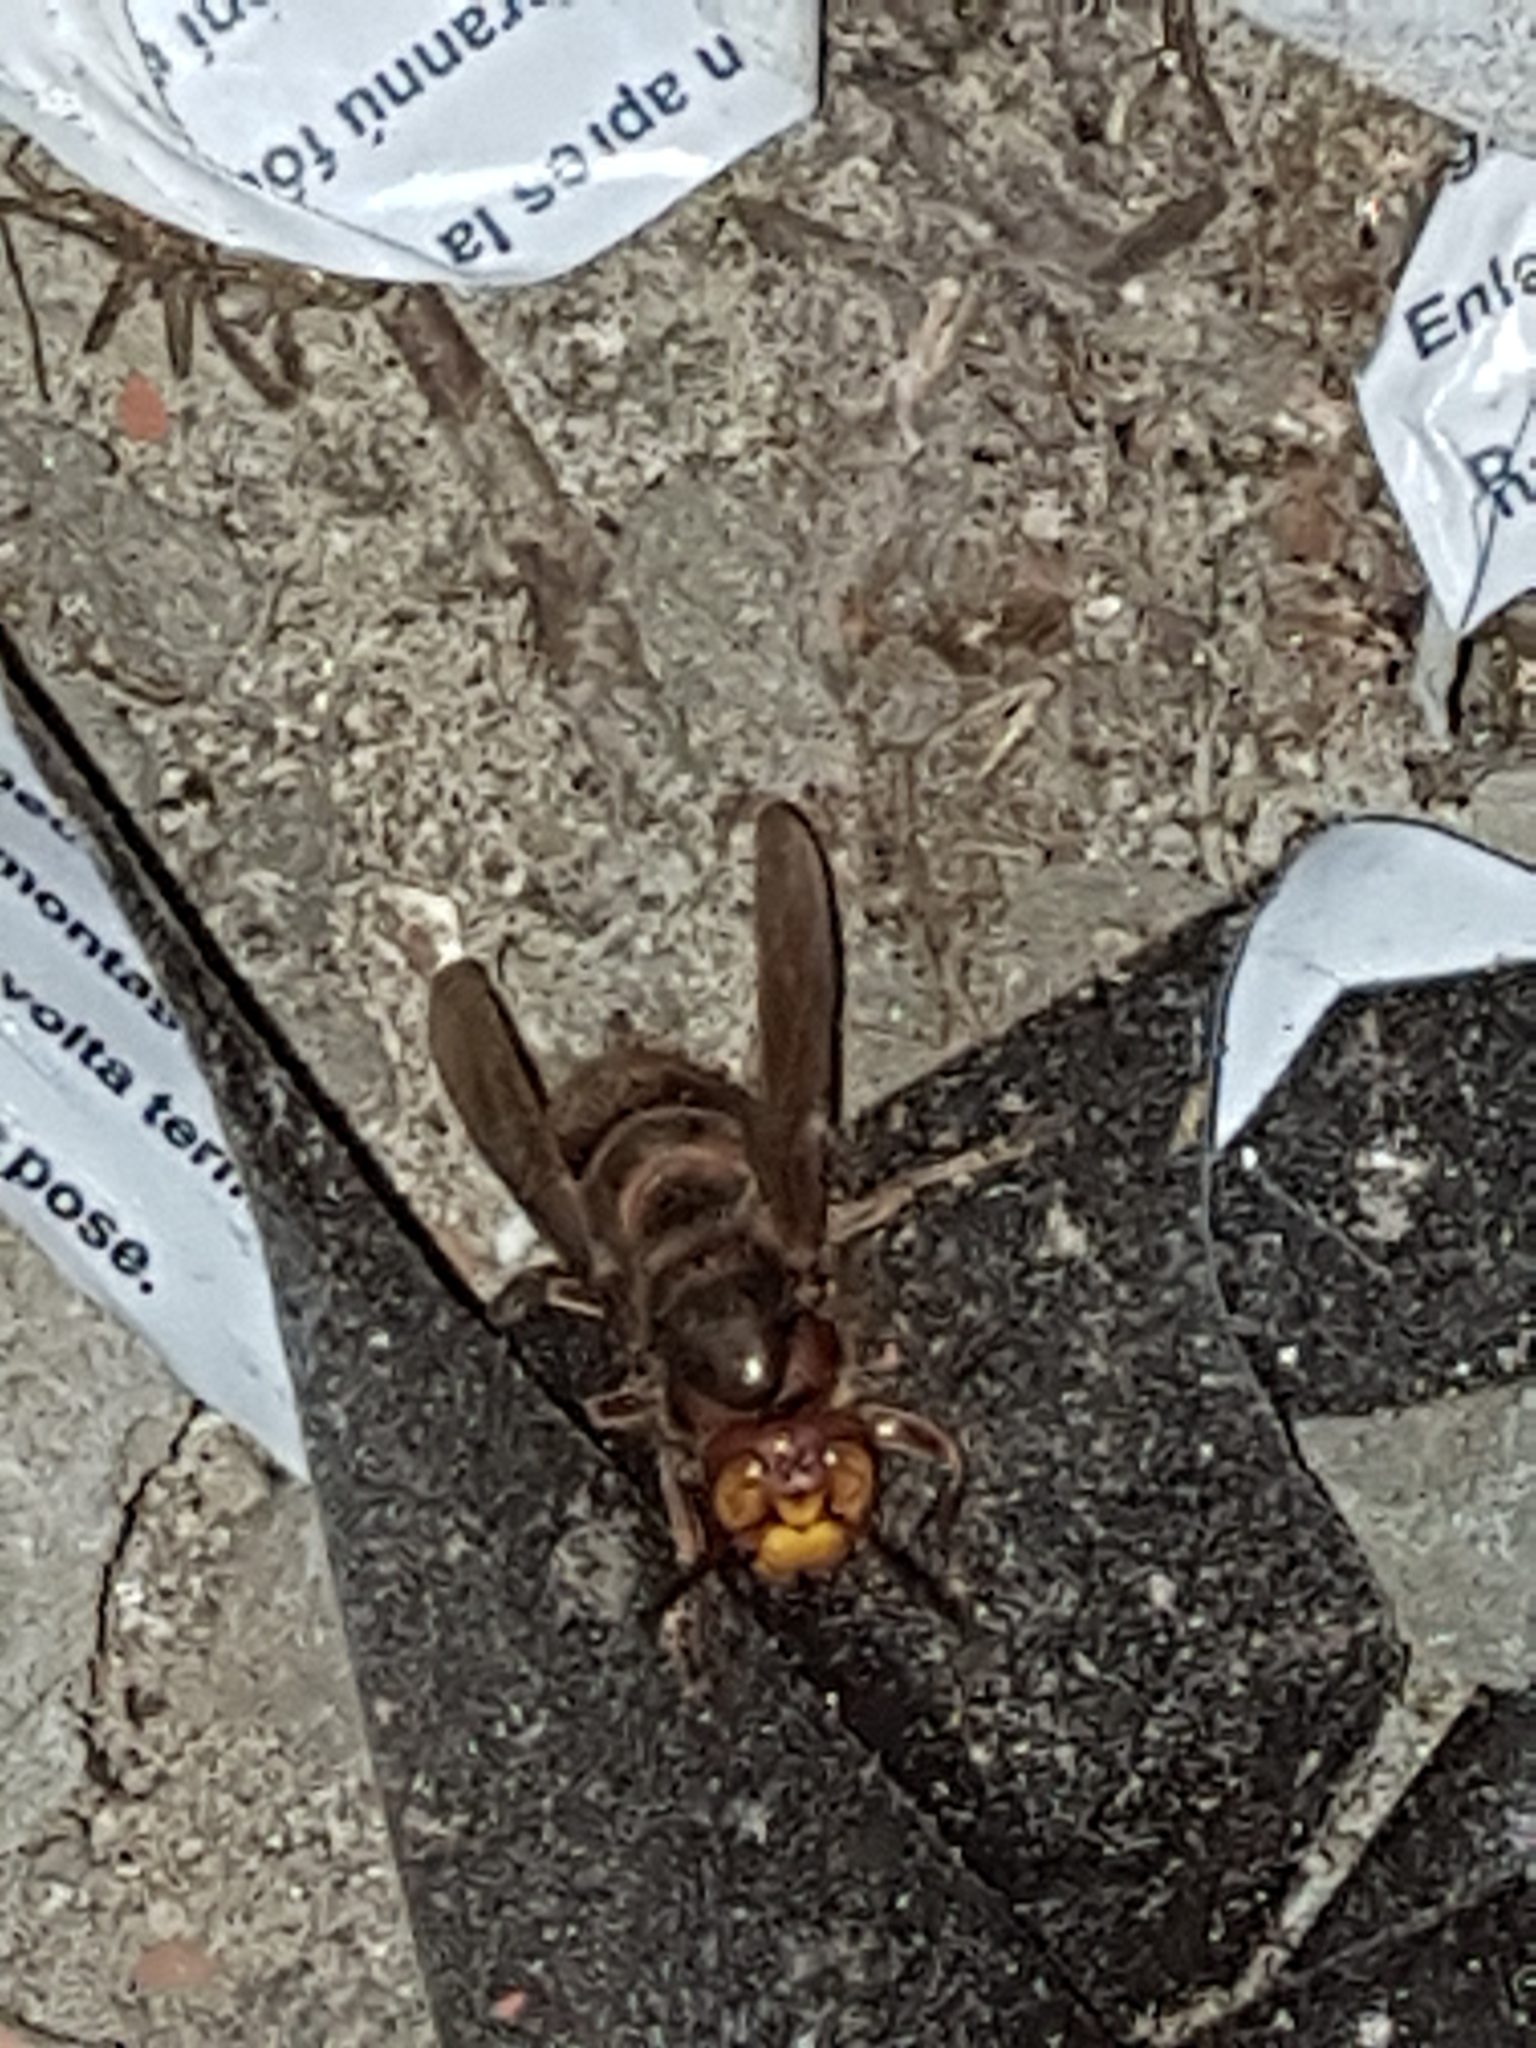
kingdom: Animalia
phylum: Arthropoda
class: Insecta
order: Hymenoptera
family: Vespidae
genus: Vespa
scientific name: Vespa crabro
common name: Hornet
